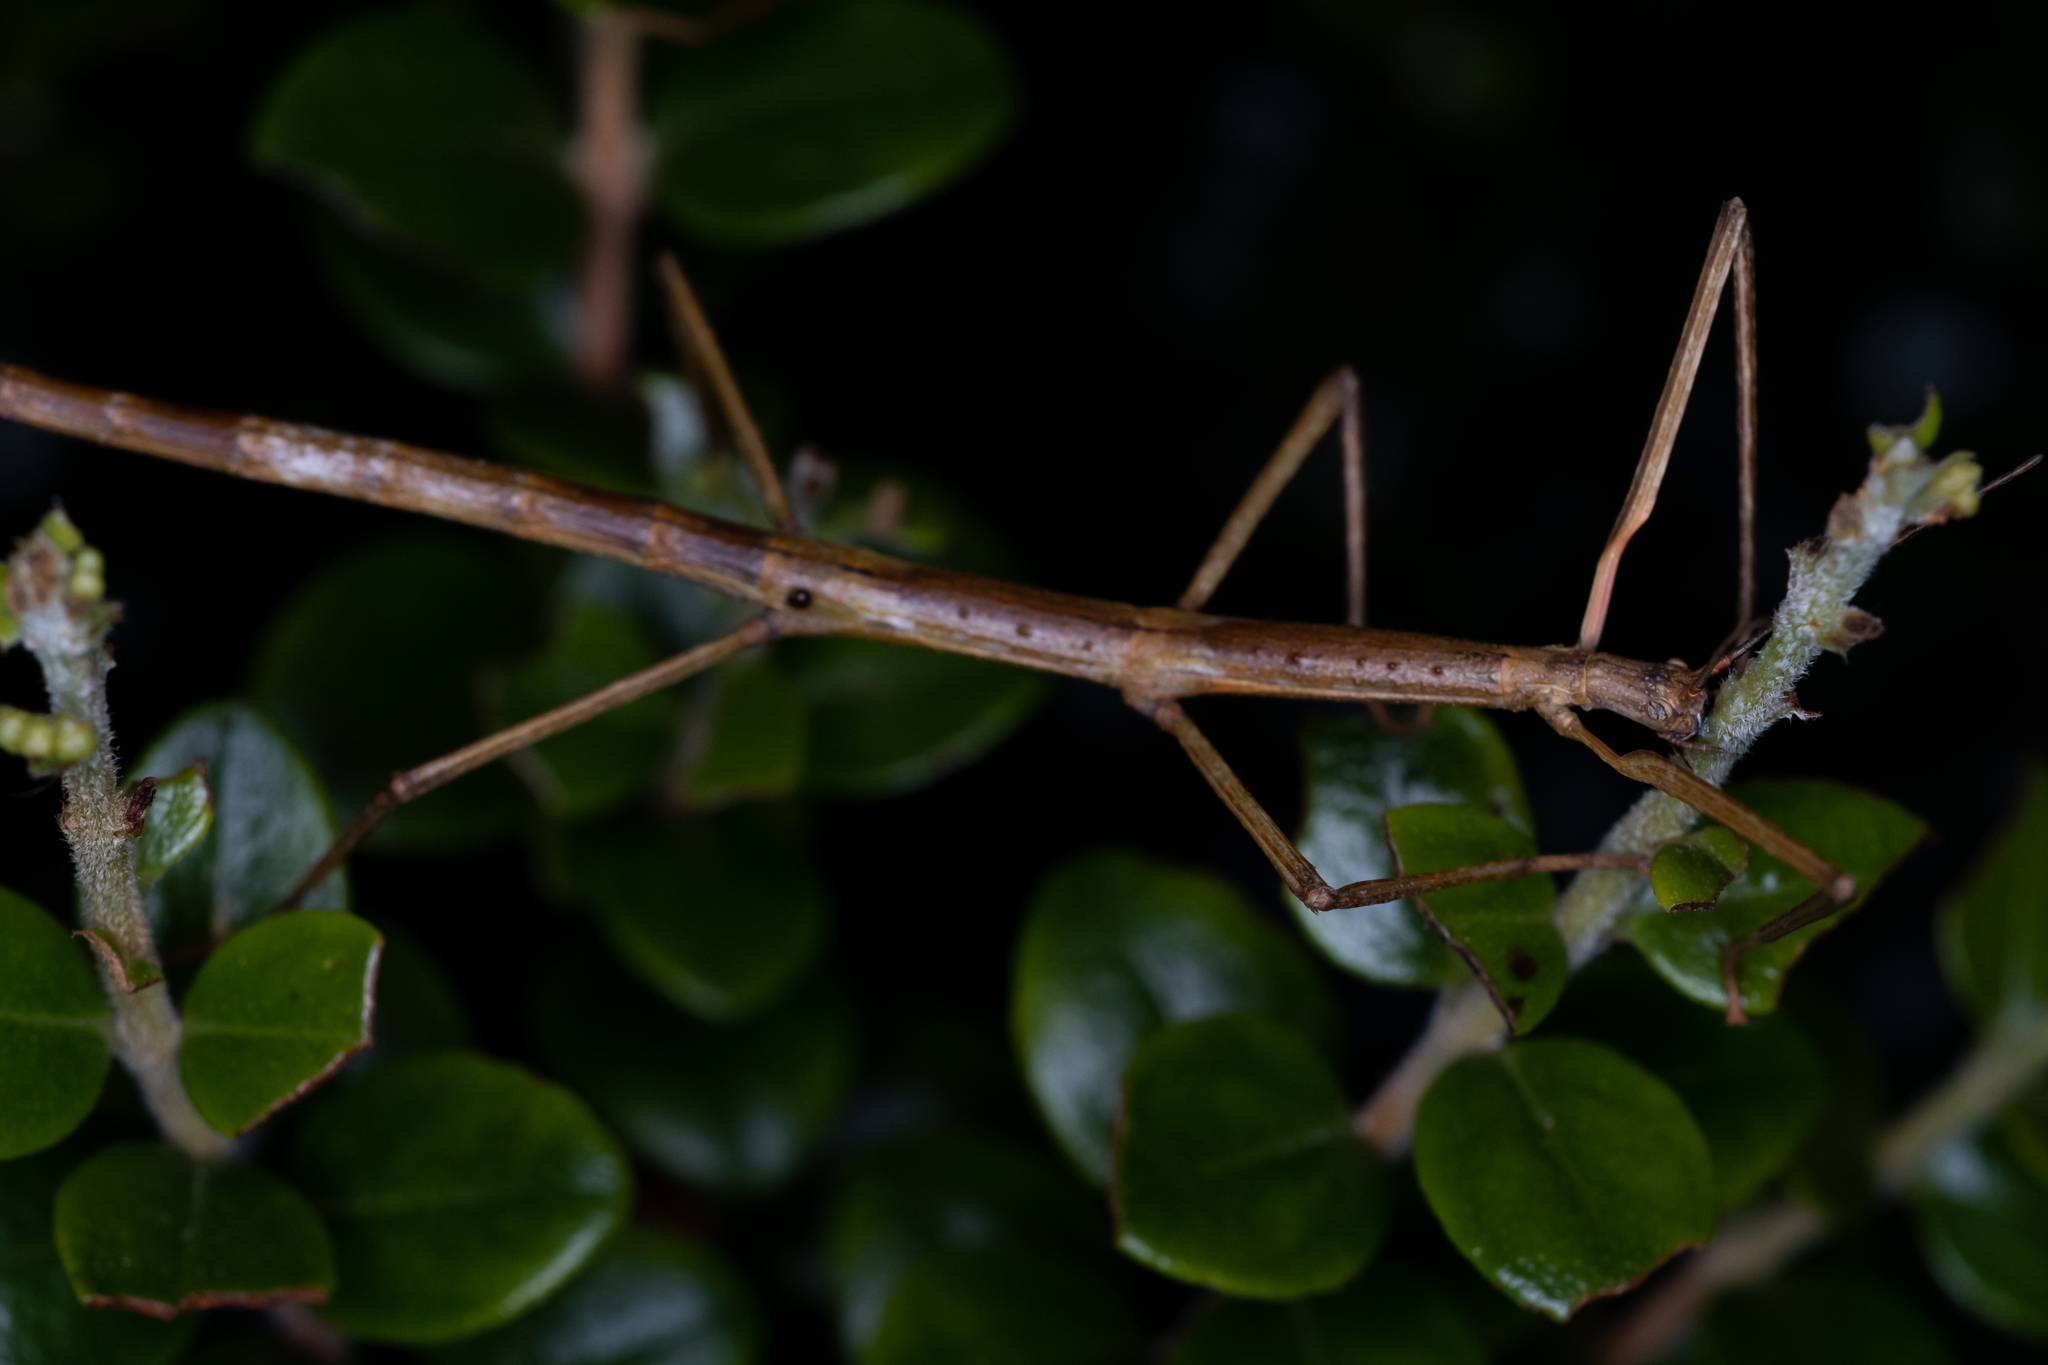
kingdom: Animalia
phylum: Arthropoda
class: Insecta
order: Phasmida
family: Phasmatidae
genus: Clitarchus
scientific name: Clitarchus hookeri
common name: Smooth stick insect
